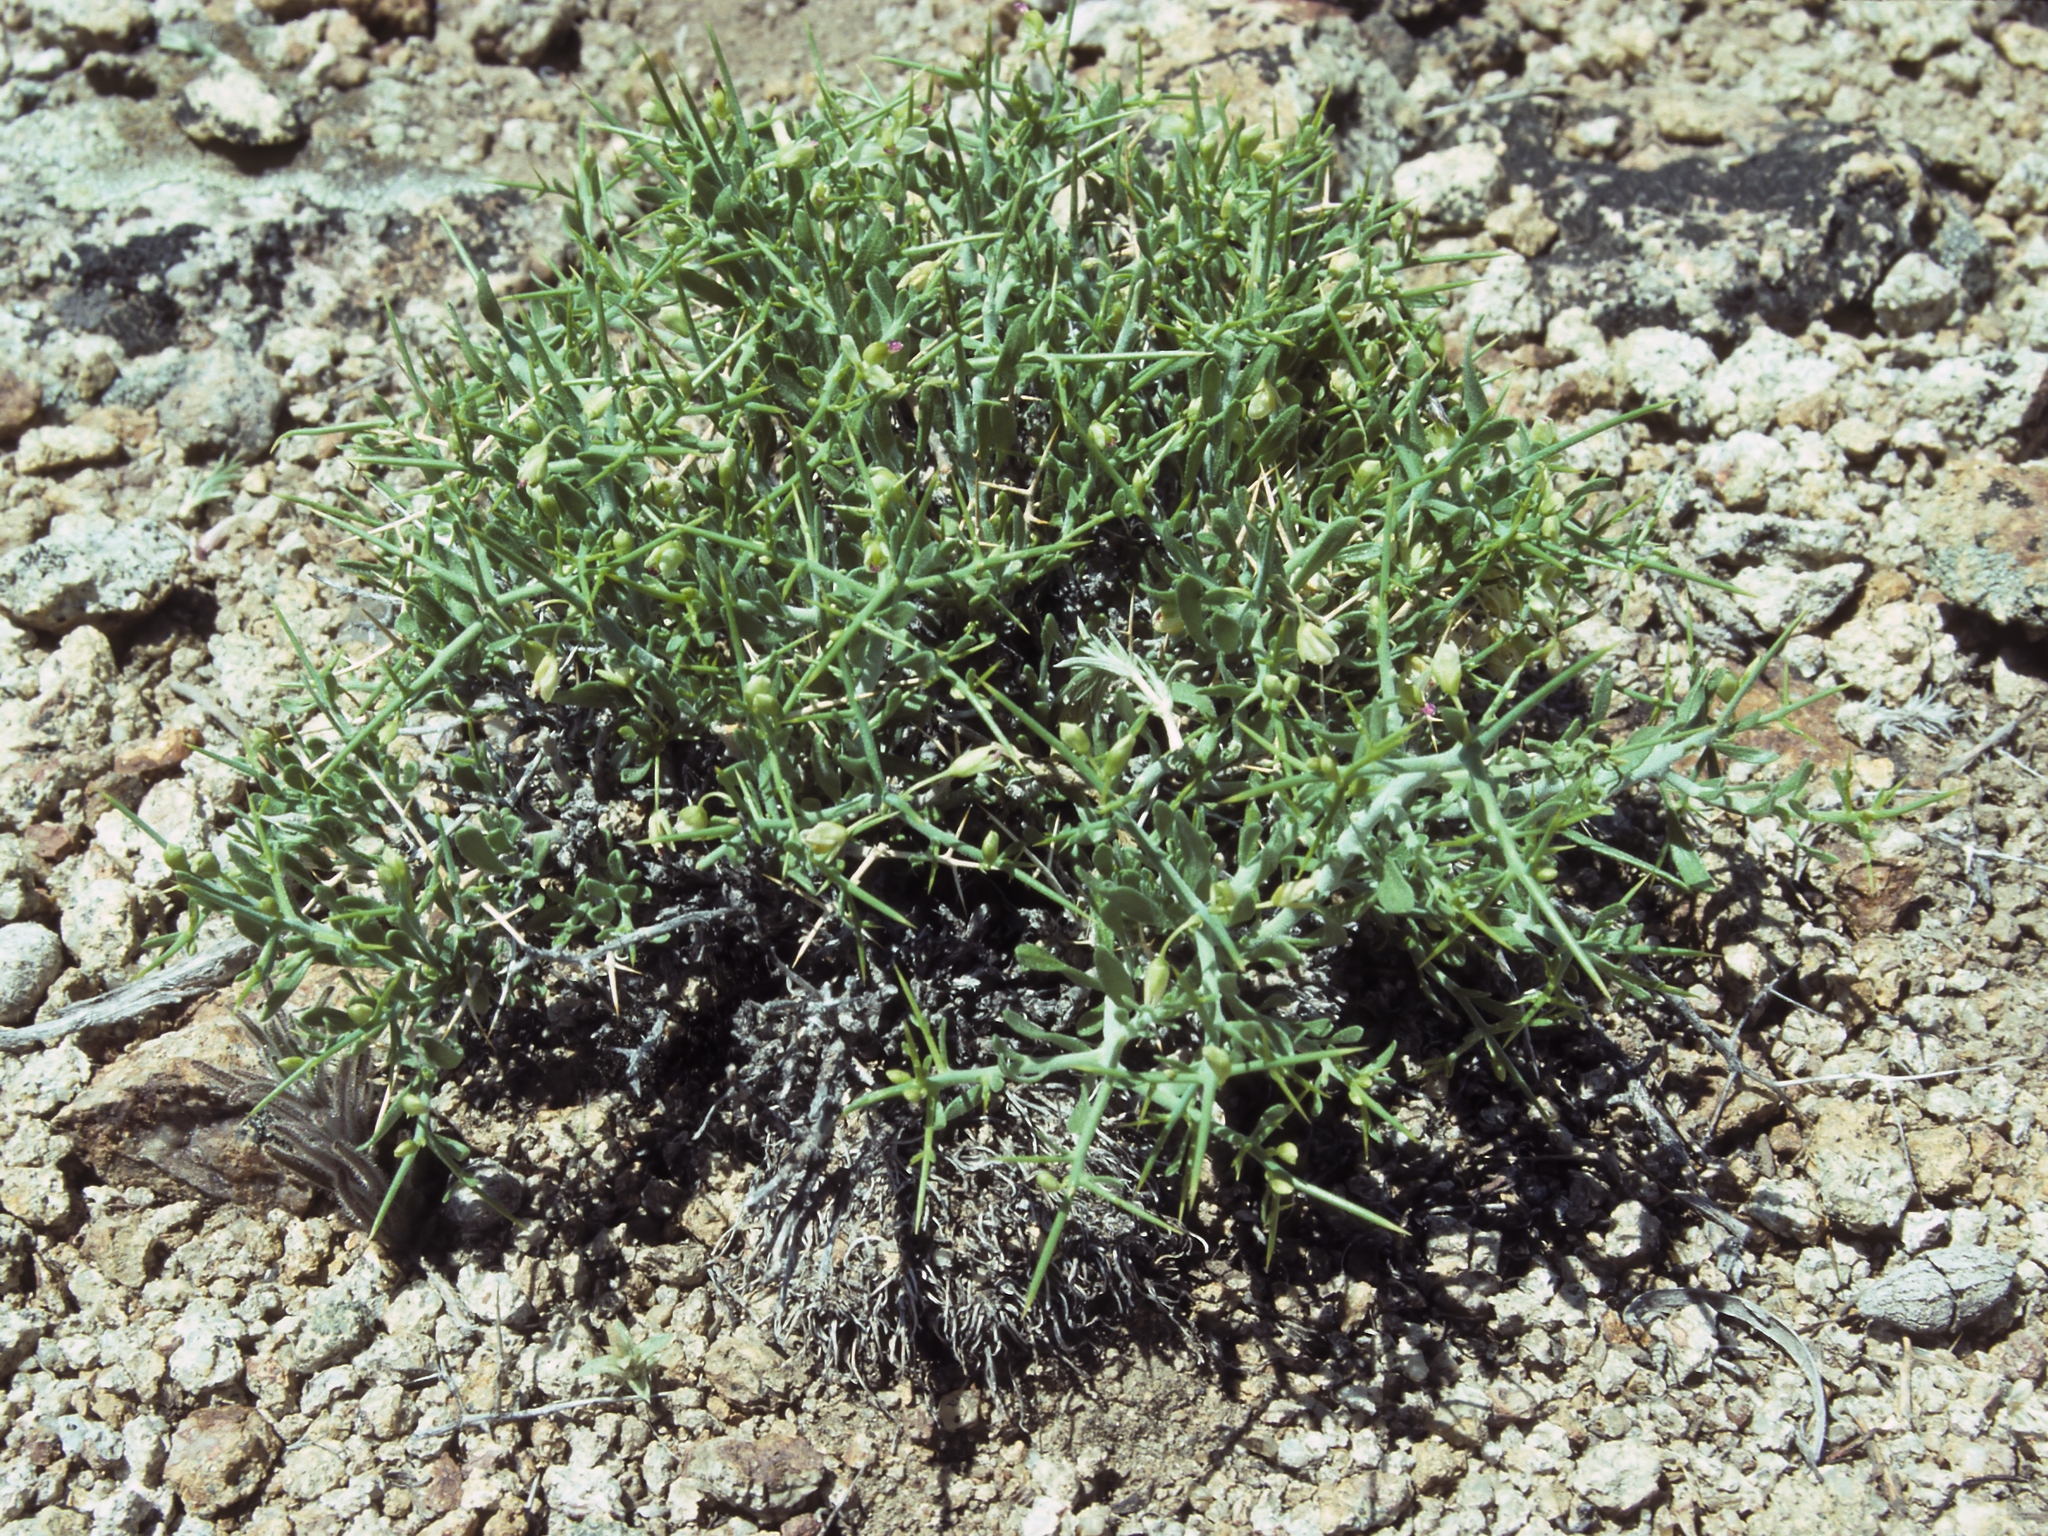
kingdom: Plantae
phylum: Tracheophyta
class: Magnoliopsida
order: Fabales
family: Polygalaceae
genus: Rhinotropis
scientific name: Rhinotropis intermontana
